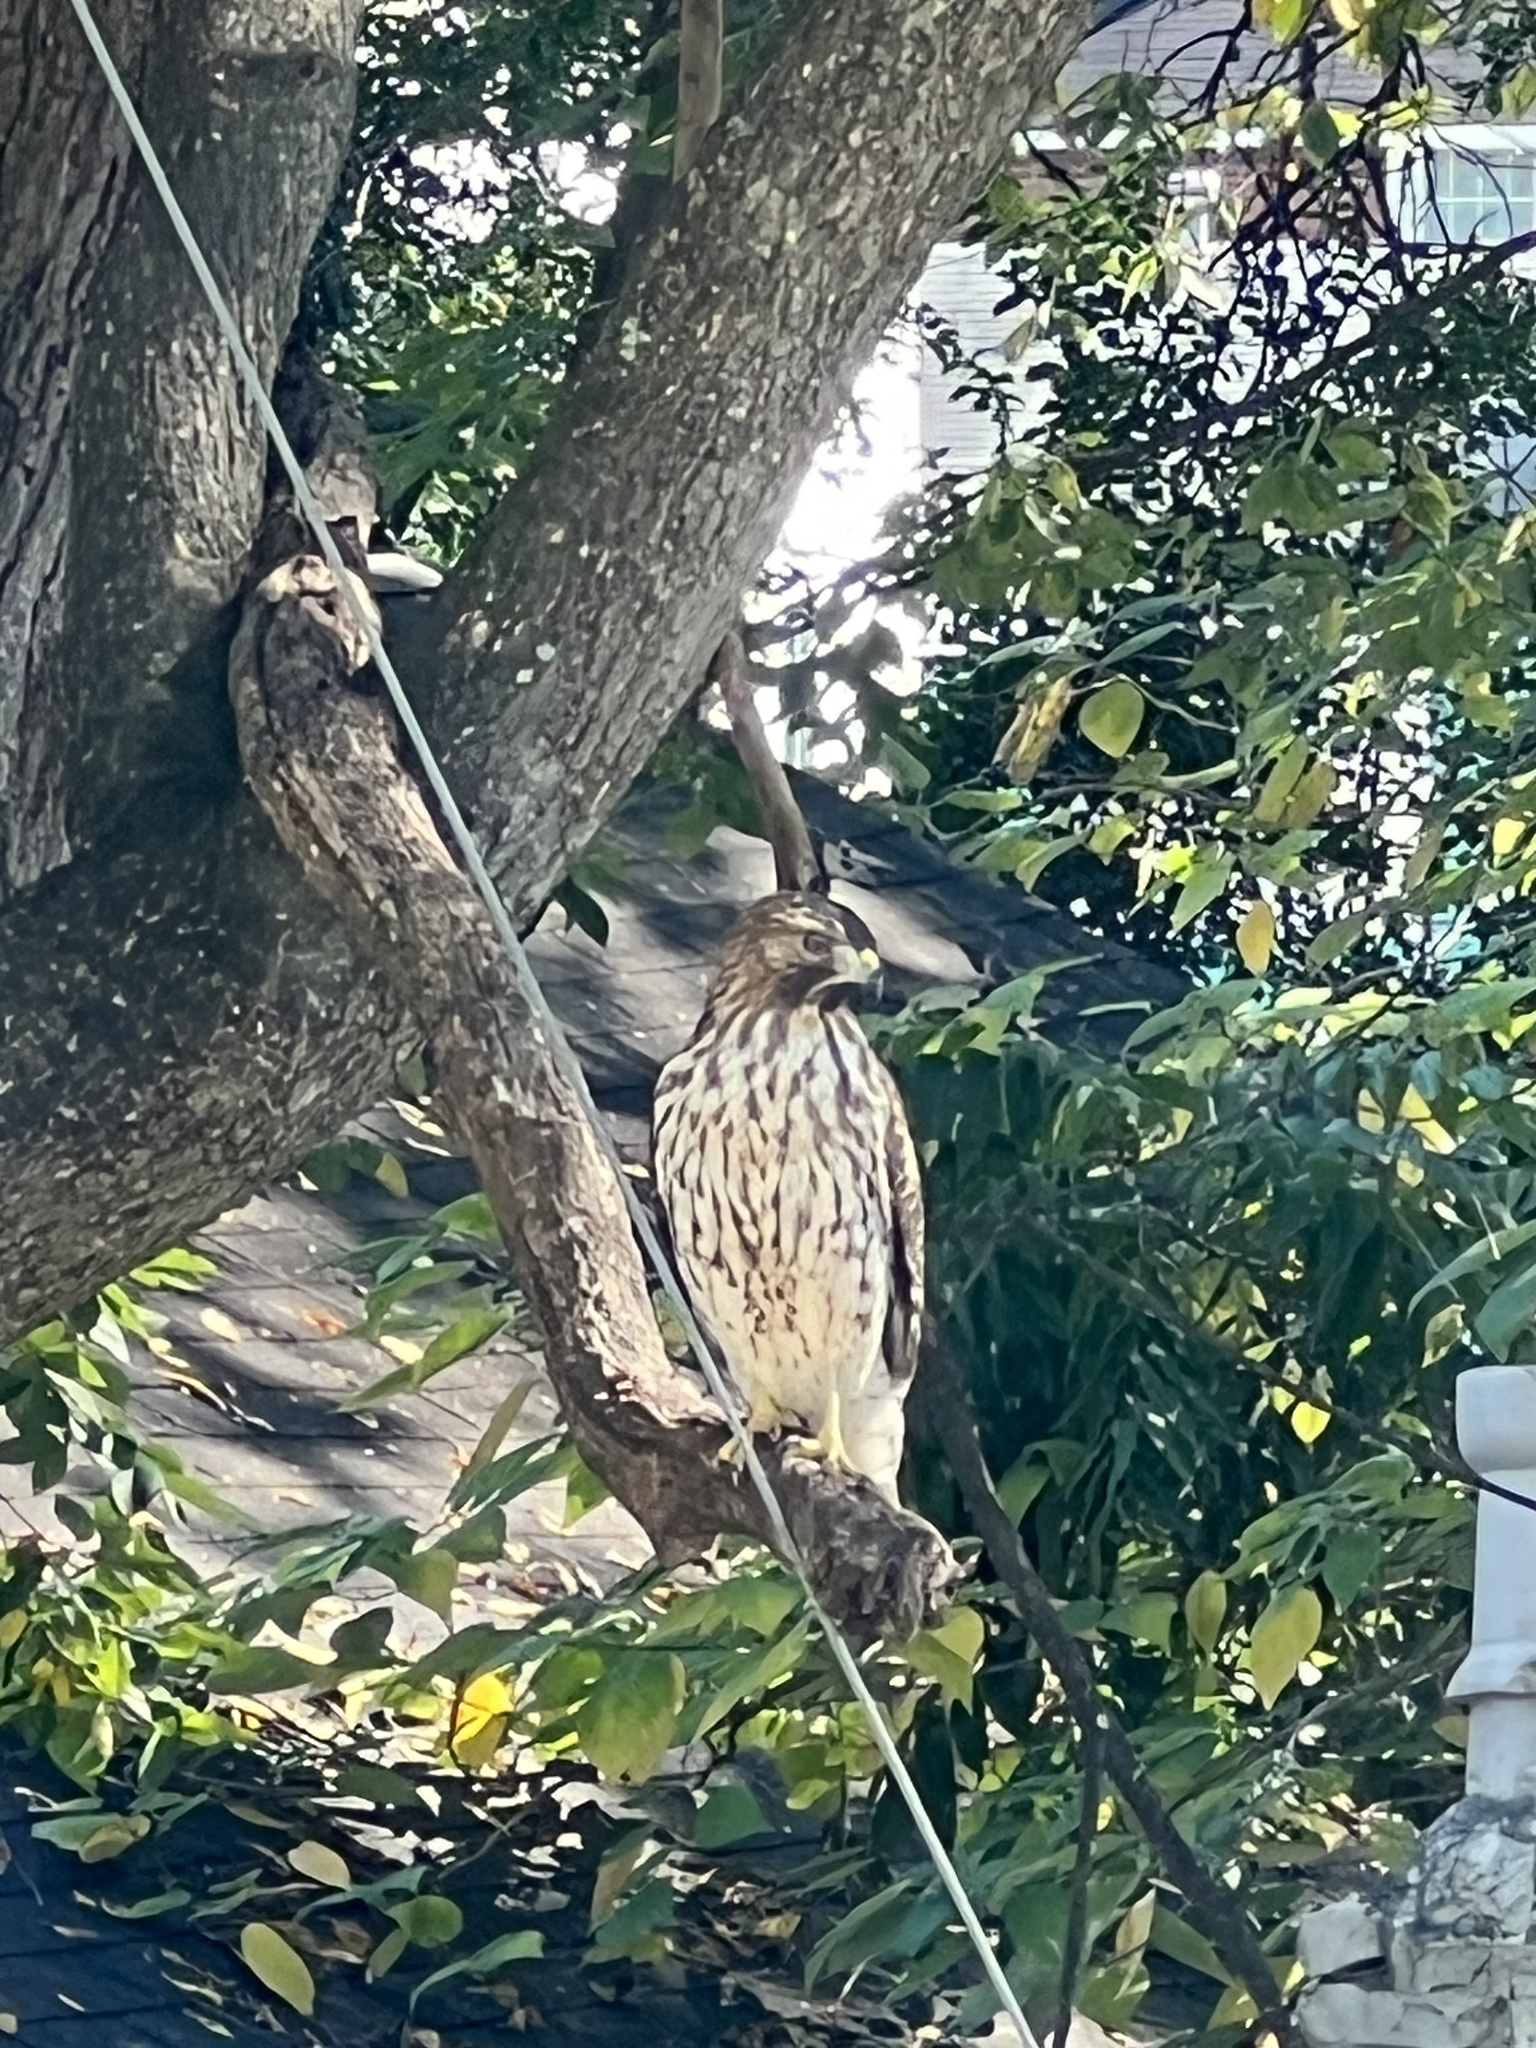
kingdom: Animalia
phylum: Chordata
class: Aves
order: Accipitriformes
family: Accipitridae
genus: Buteo
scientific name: Buteo lineatus
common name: Red-shouldered hawk
